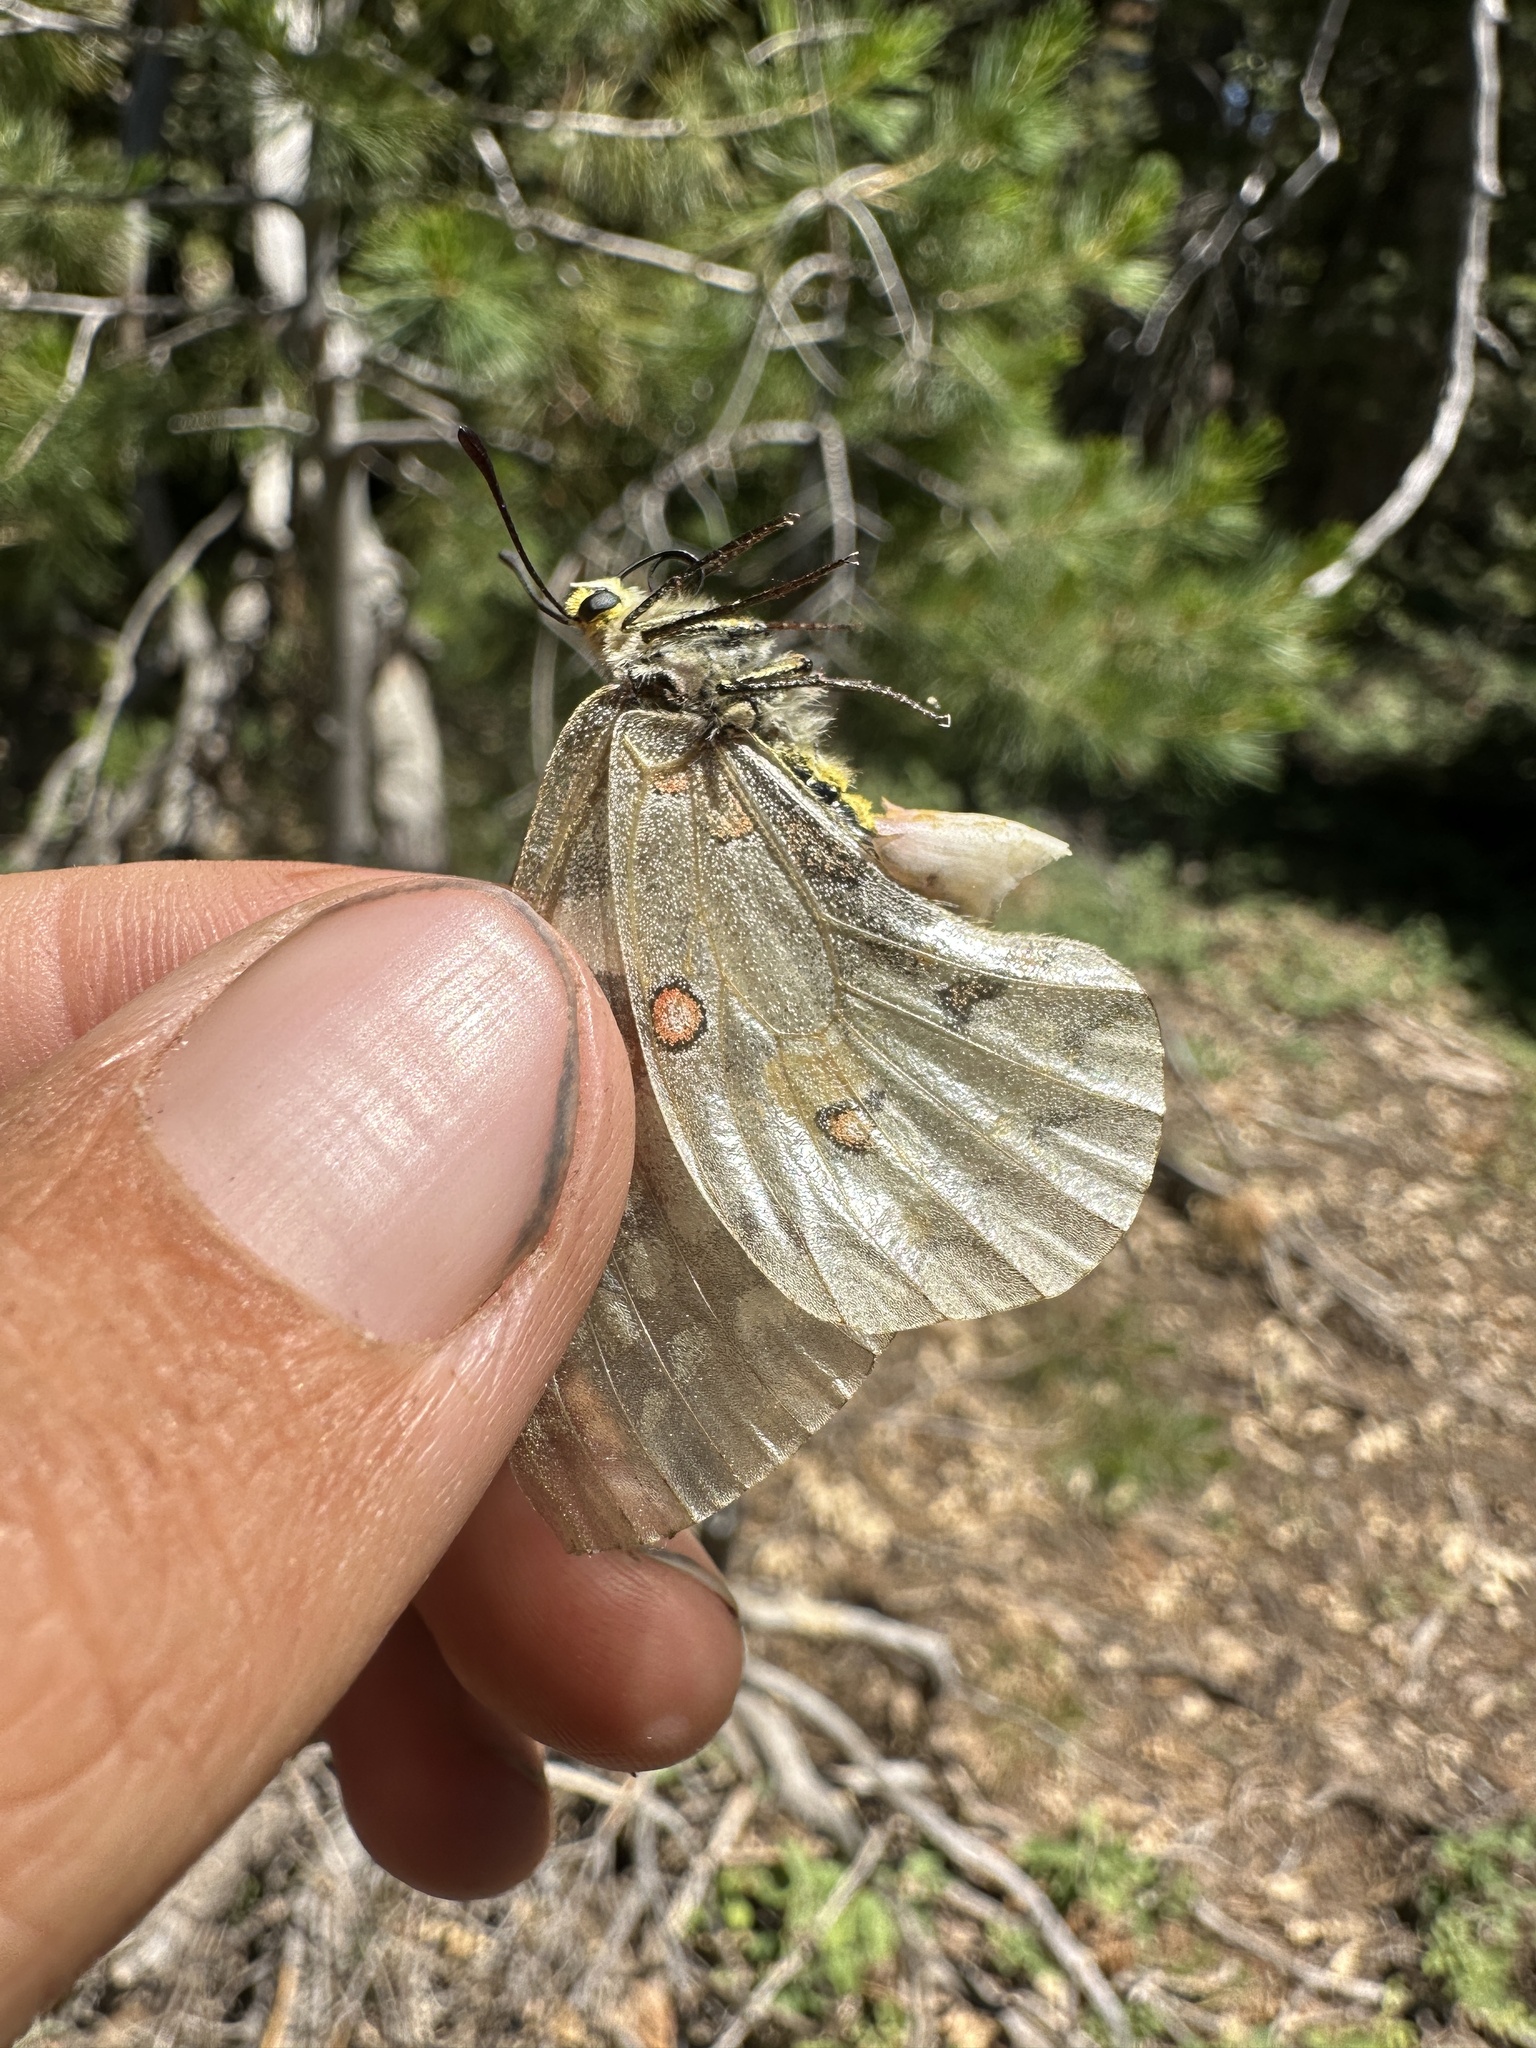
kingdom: Animalia
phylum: Arthropoda
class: Insecta
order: Lepidoptera
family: Papilionidae
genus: Parnassius
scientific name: Parnassius clodius
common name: American apollo
